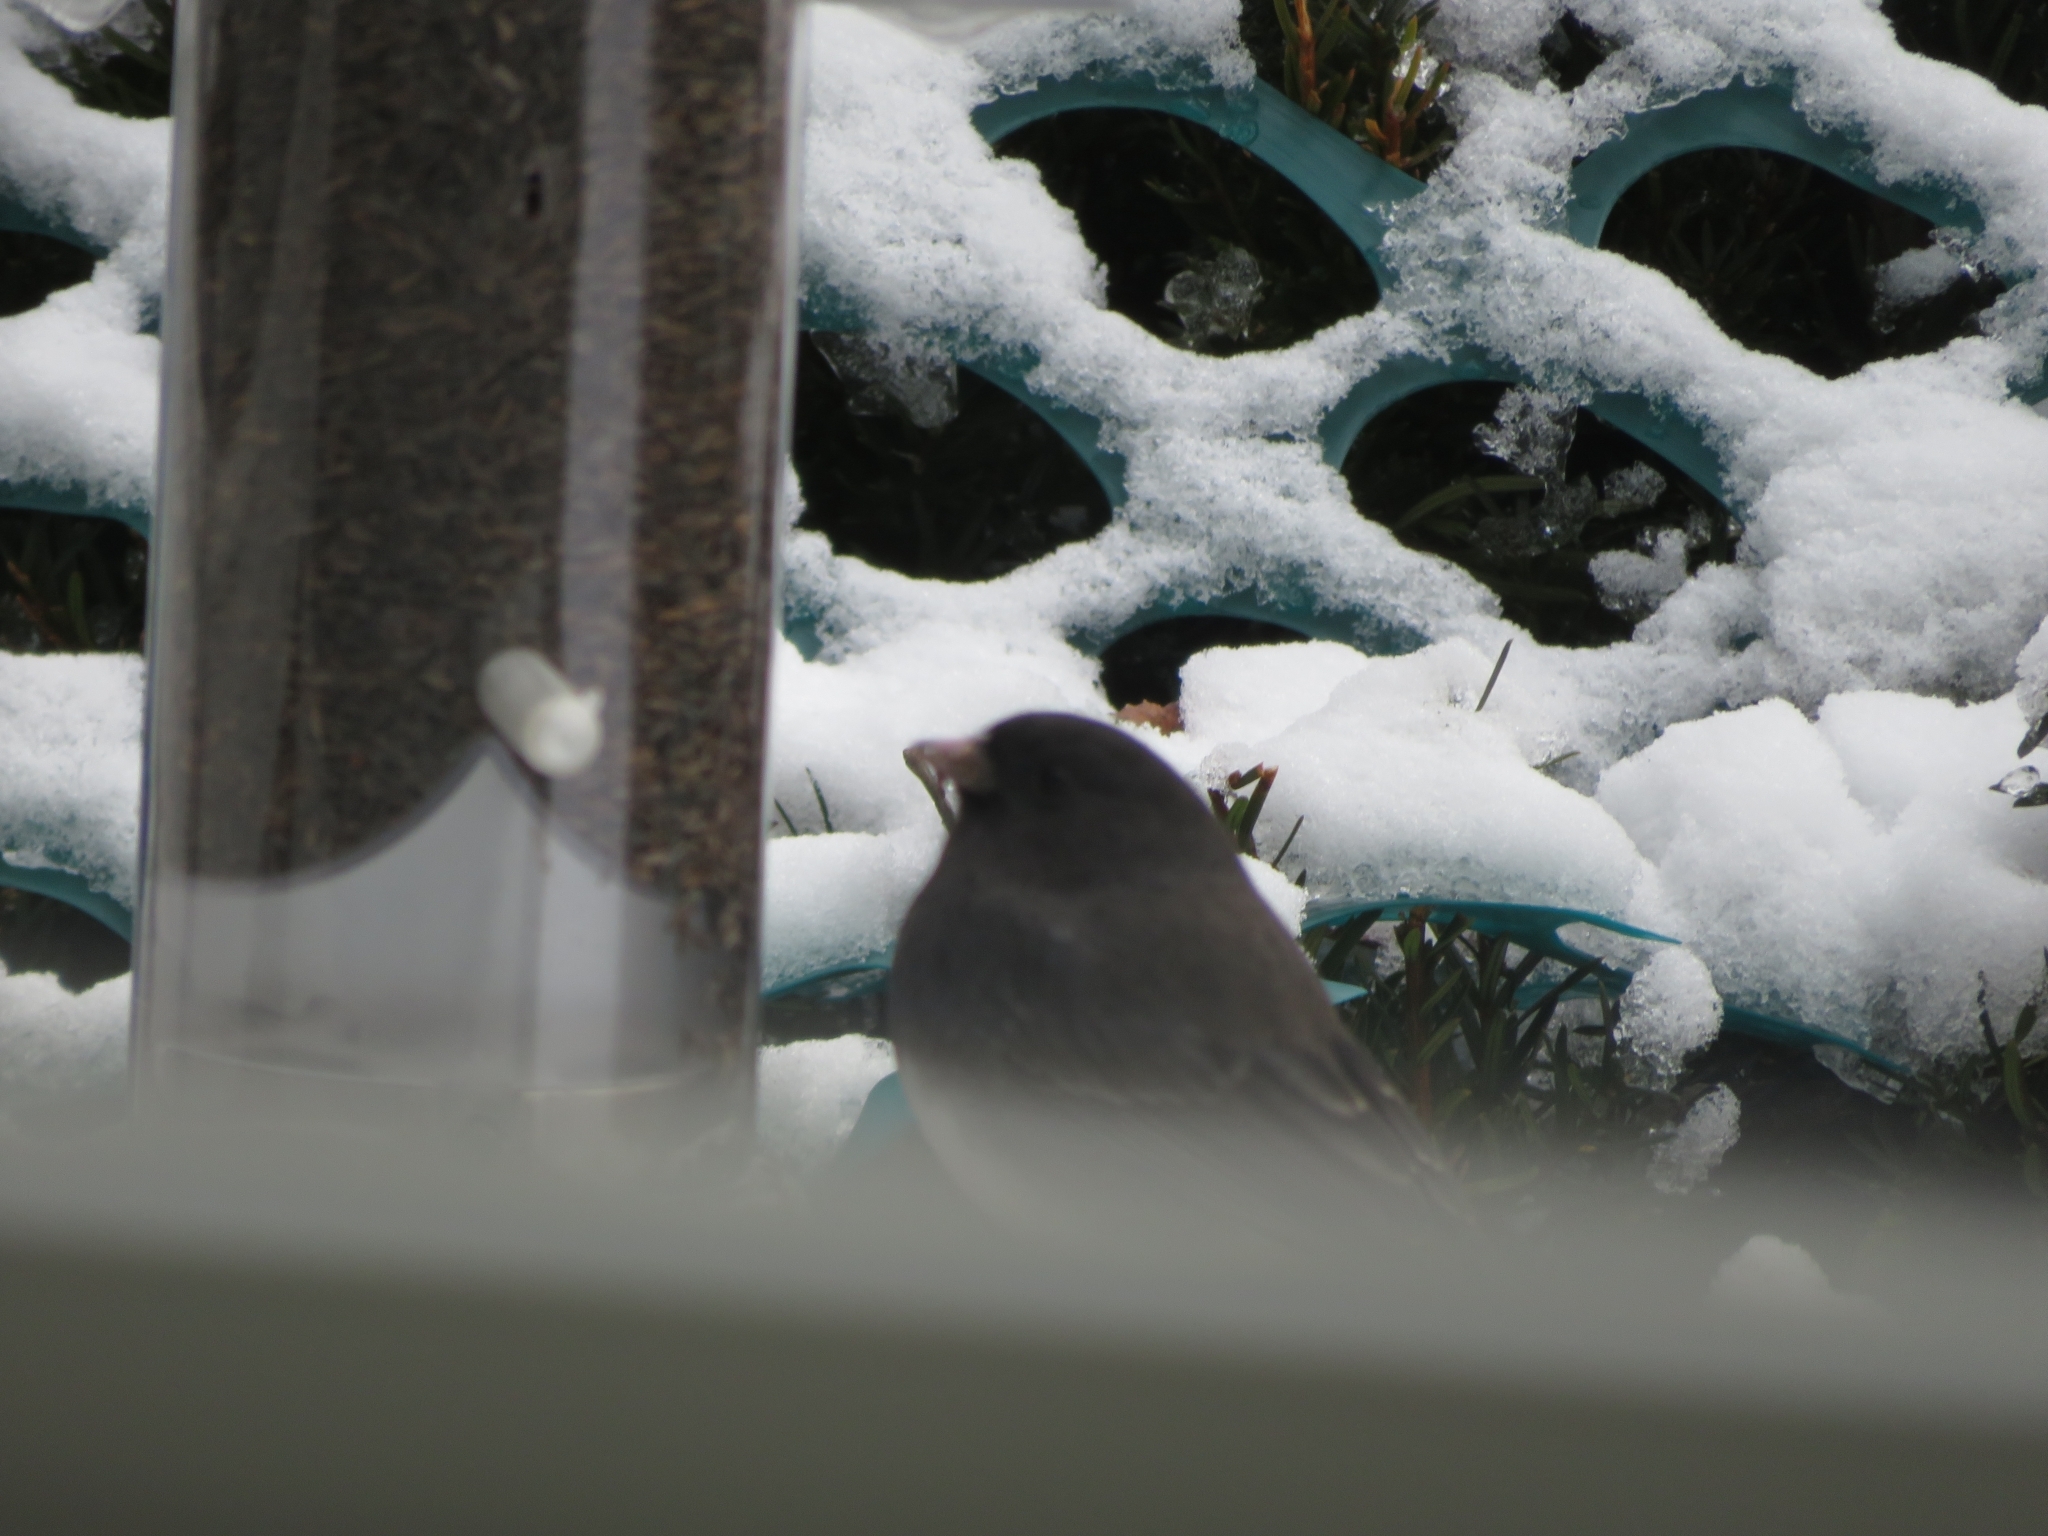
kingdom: Animalia
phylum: Chordata
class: Aves
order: Passeriformes
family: Passerellidae
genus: Junco
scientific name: Junco hyemalis
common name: Dark-eyed junco
